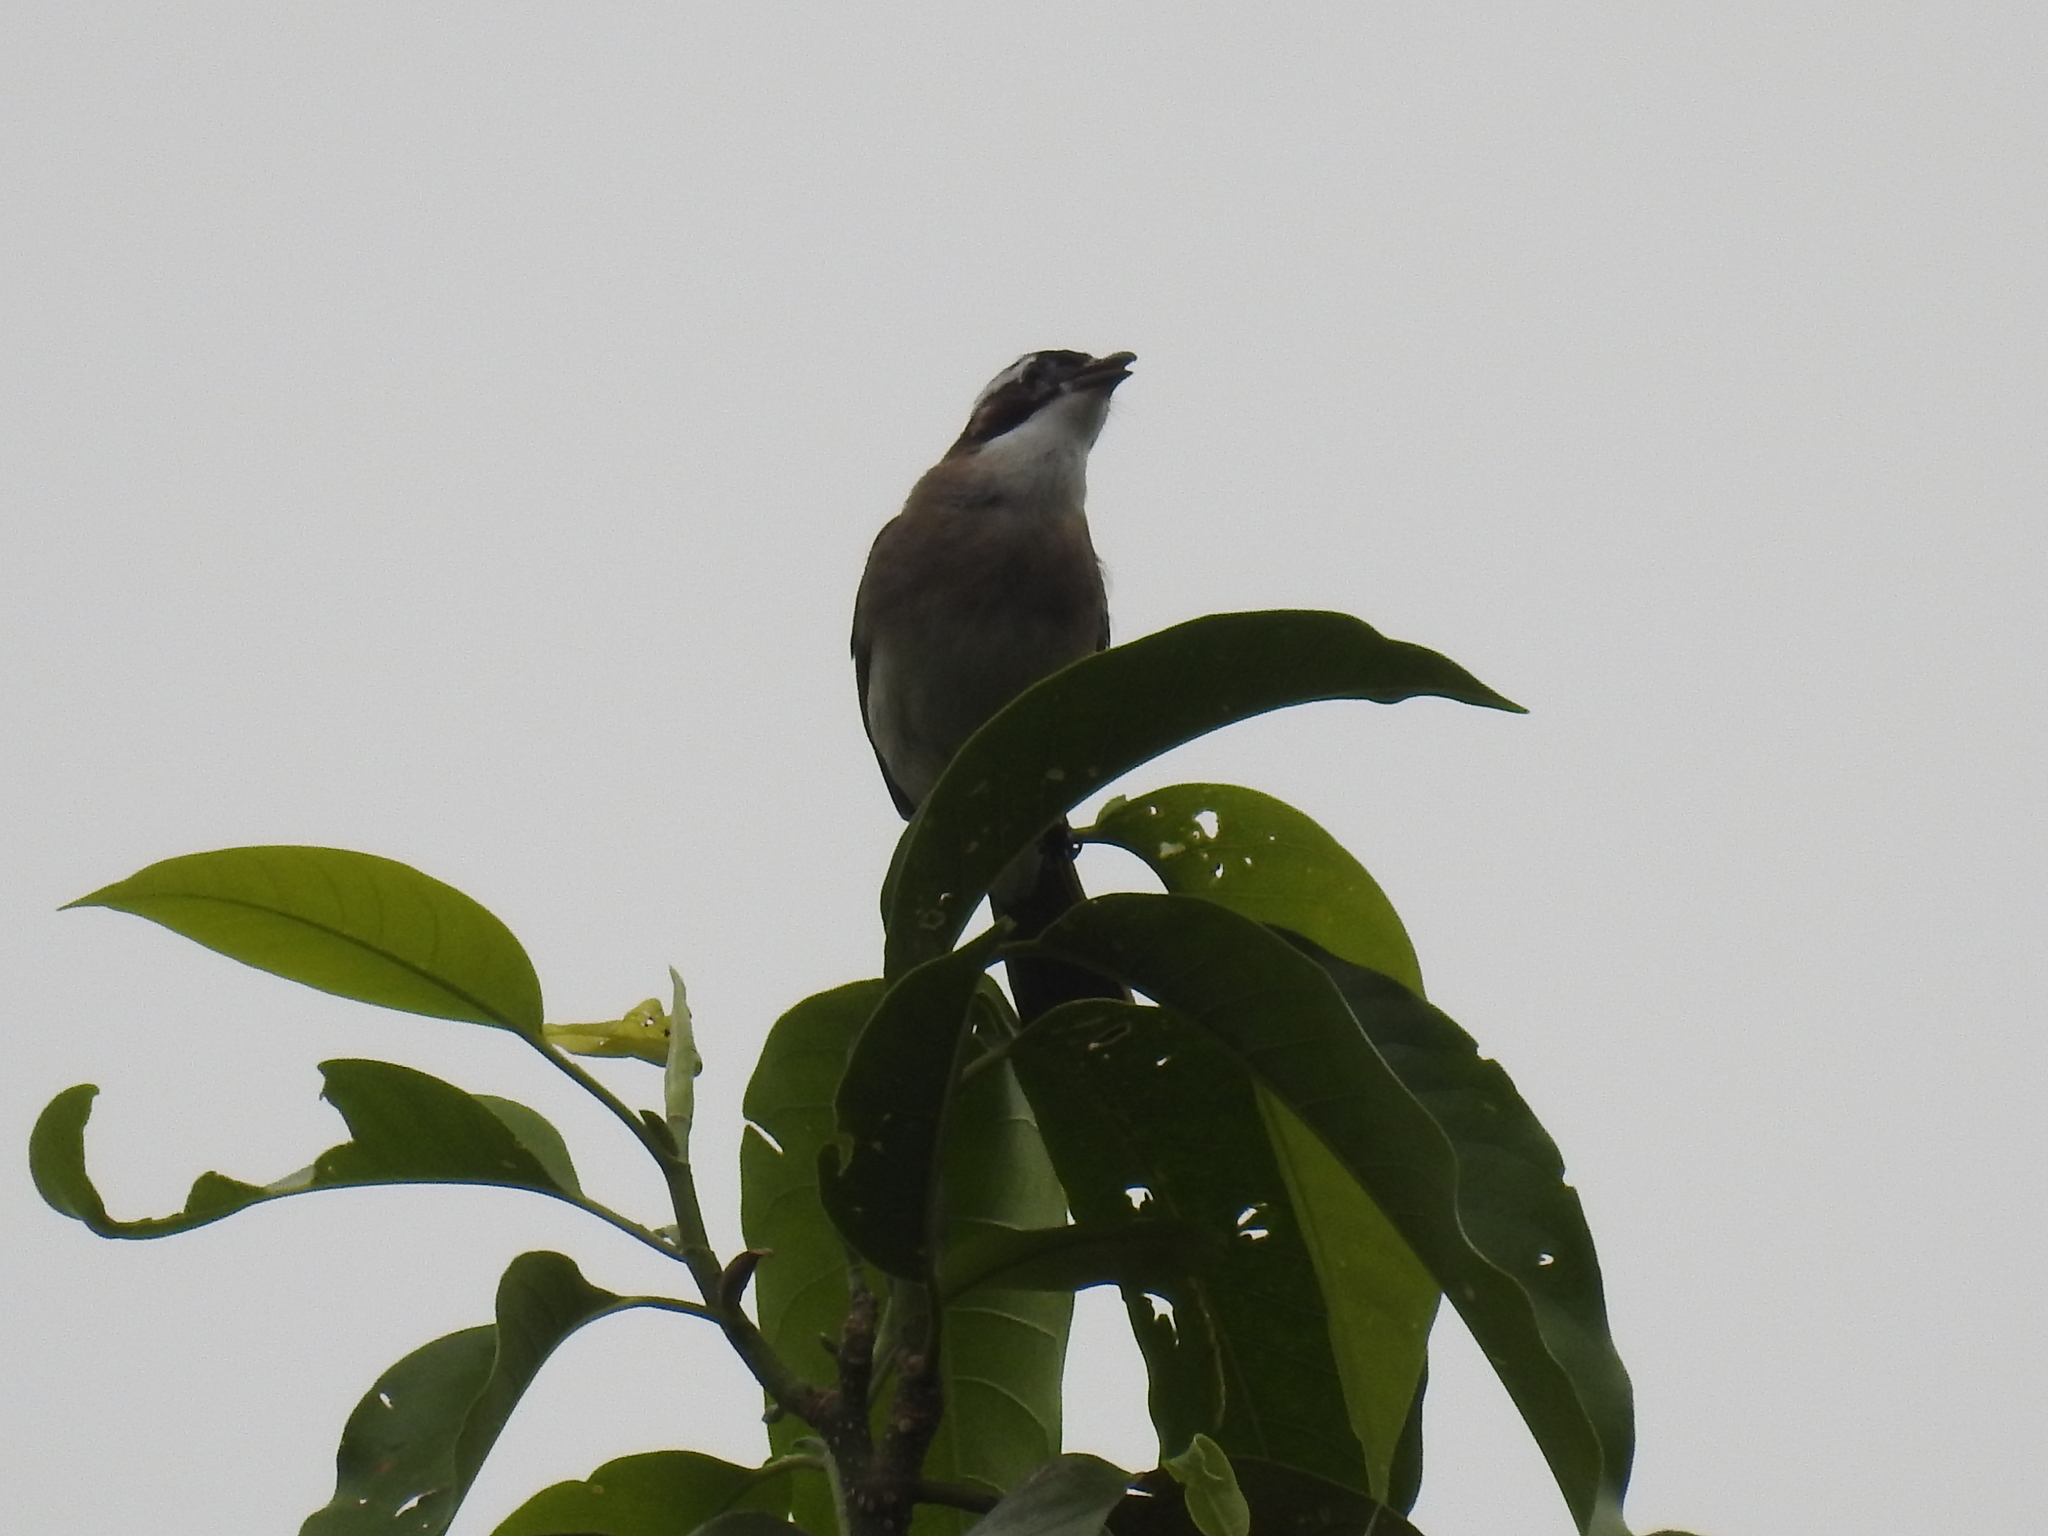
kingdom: Animalia
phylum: Chordata
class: Aves
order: Passeriformes
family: Pycnonotidae
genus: Pycnonotus
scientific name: Pycnonotus sinensis
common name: Light-vented bulbul
